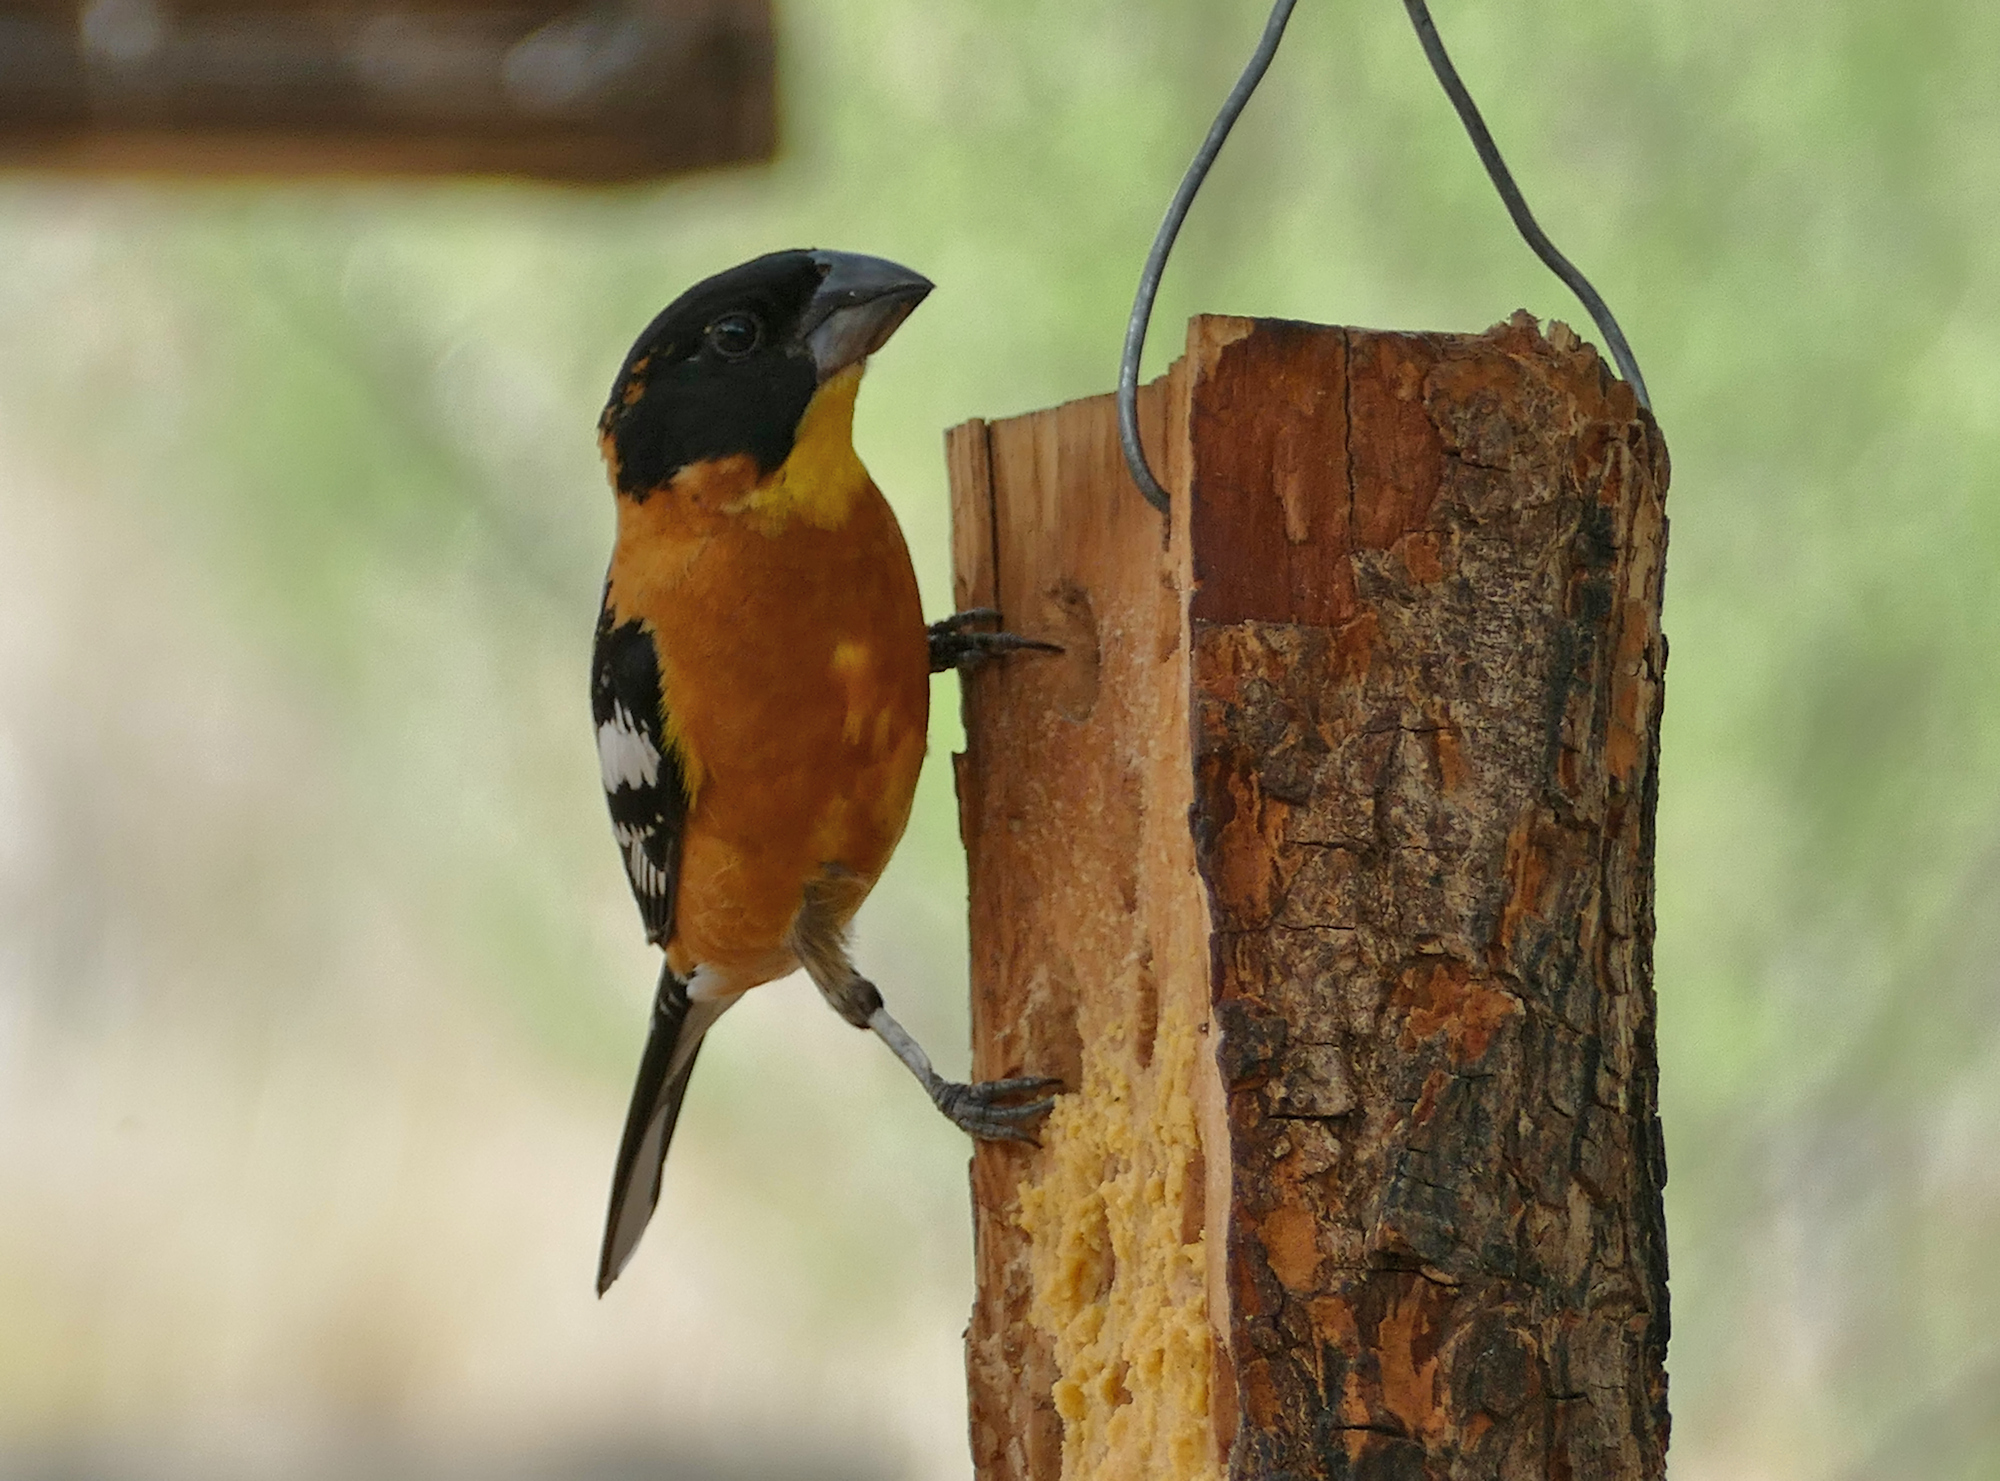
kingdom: Animalia
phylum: Chordata
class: Aves
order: Passeriformes
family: Cardinalidae
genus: Pheucticus
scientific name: Pheucticus melanocephalus
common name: Black-headed grosbeak
